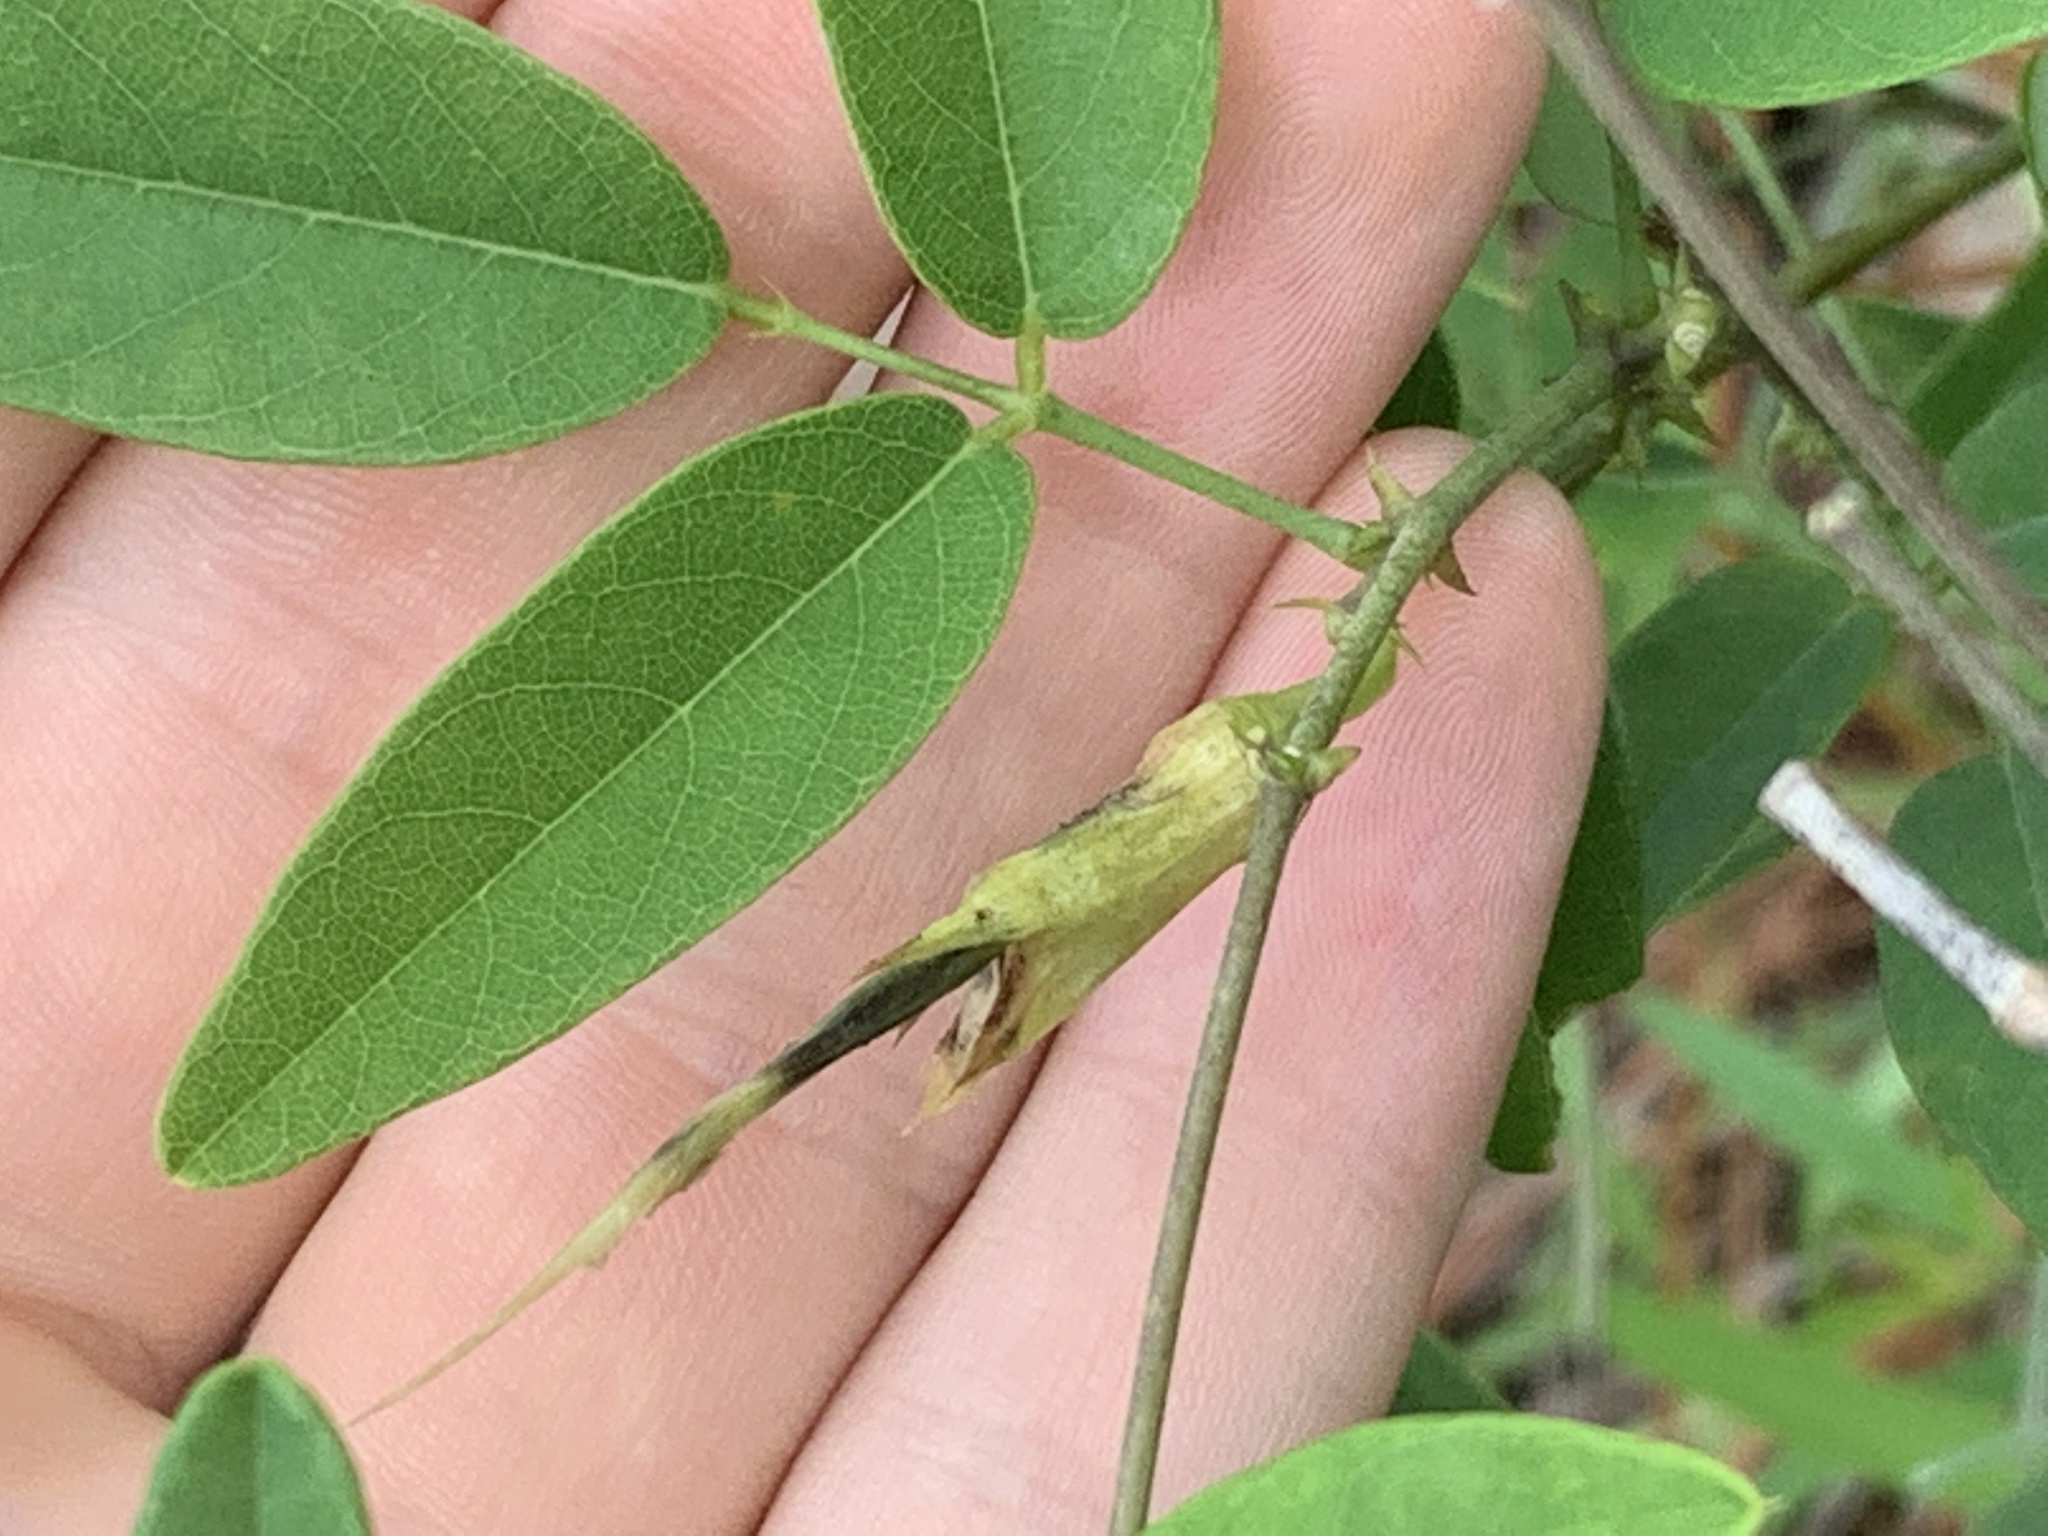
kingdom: Plantae
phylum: Tracheophyta
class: Magnoliopsida
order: Fabales
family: Fabaceae
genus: Clitoria
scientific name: Clitoria mariana
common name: Butterfly-pea
